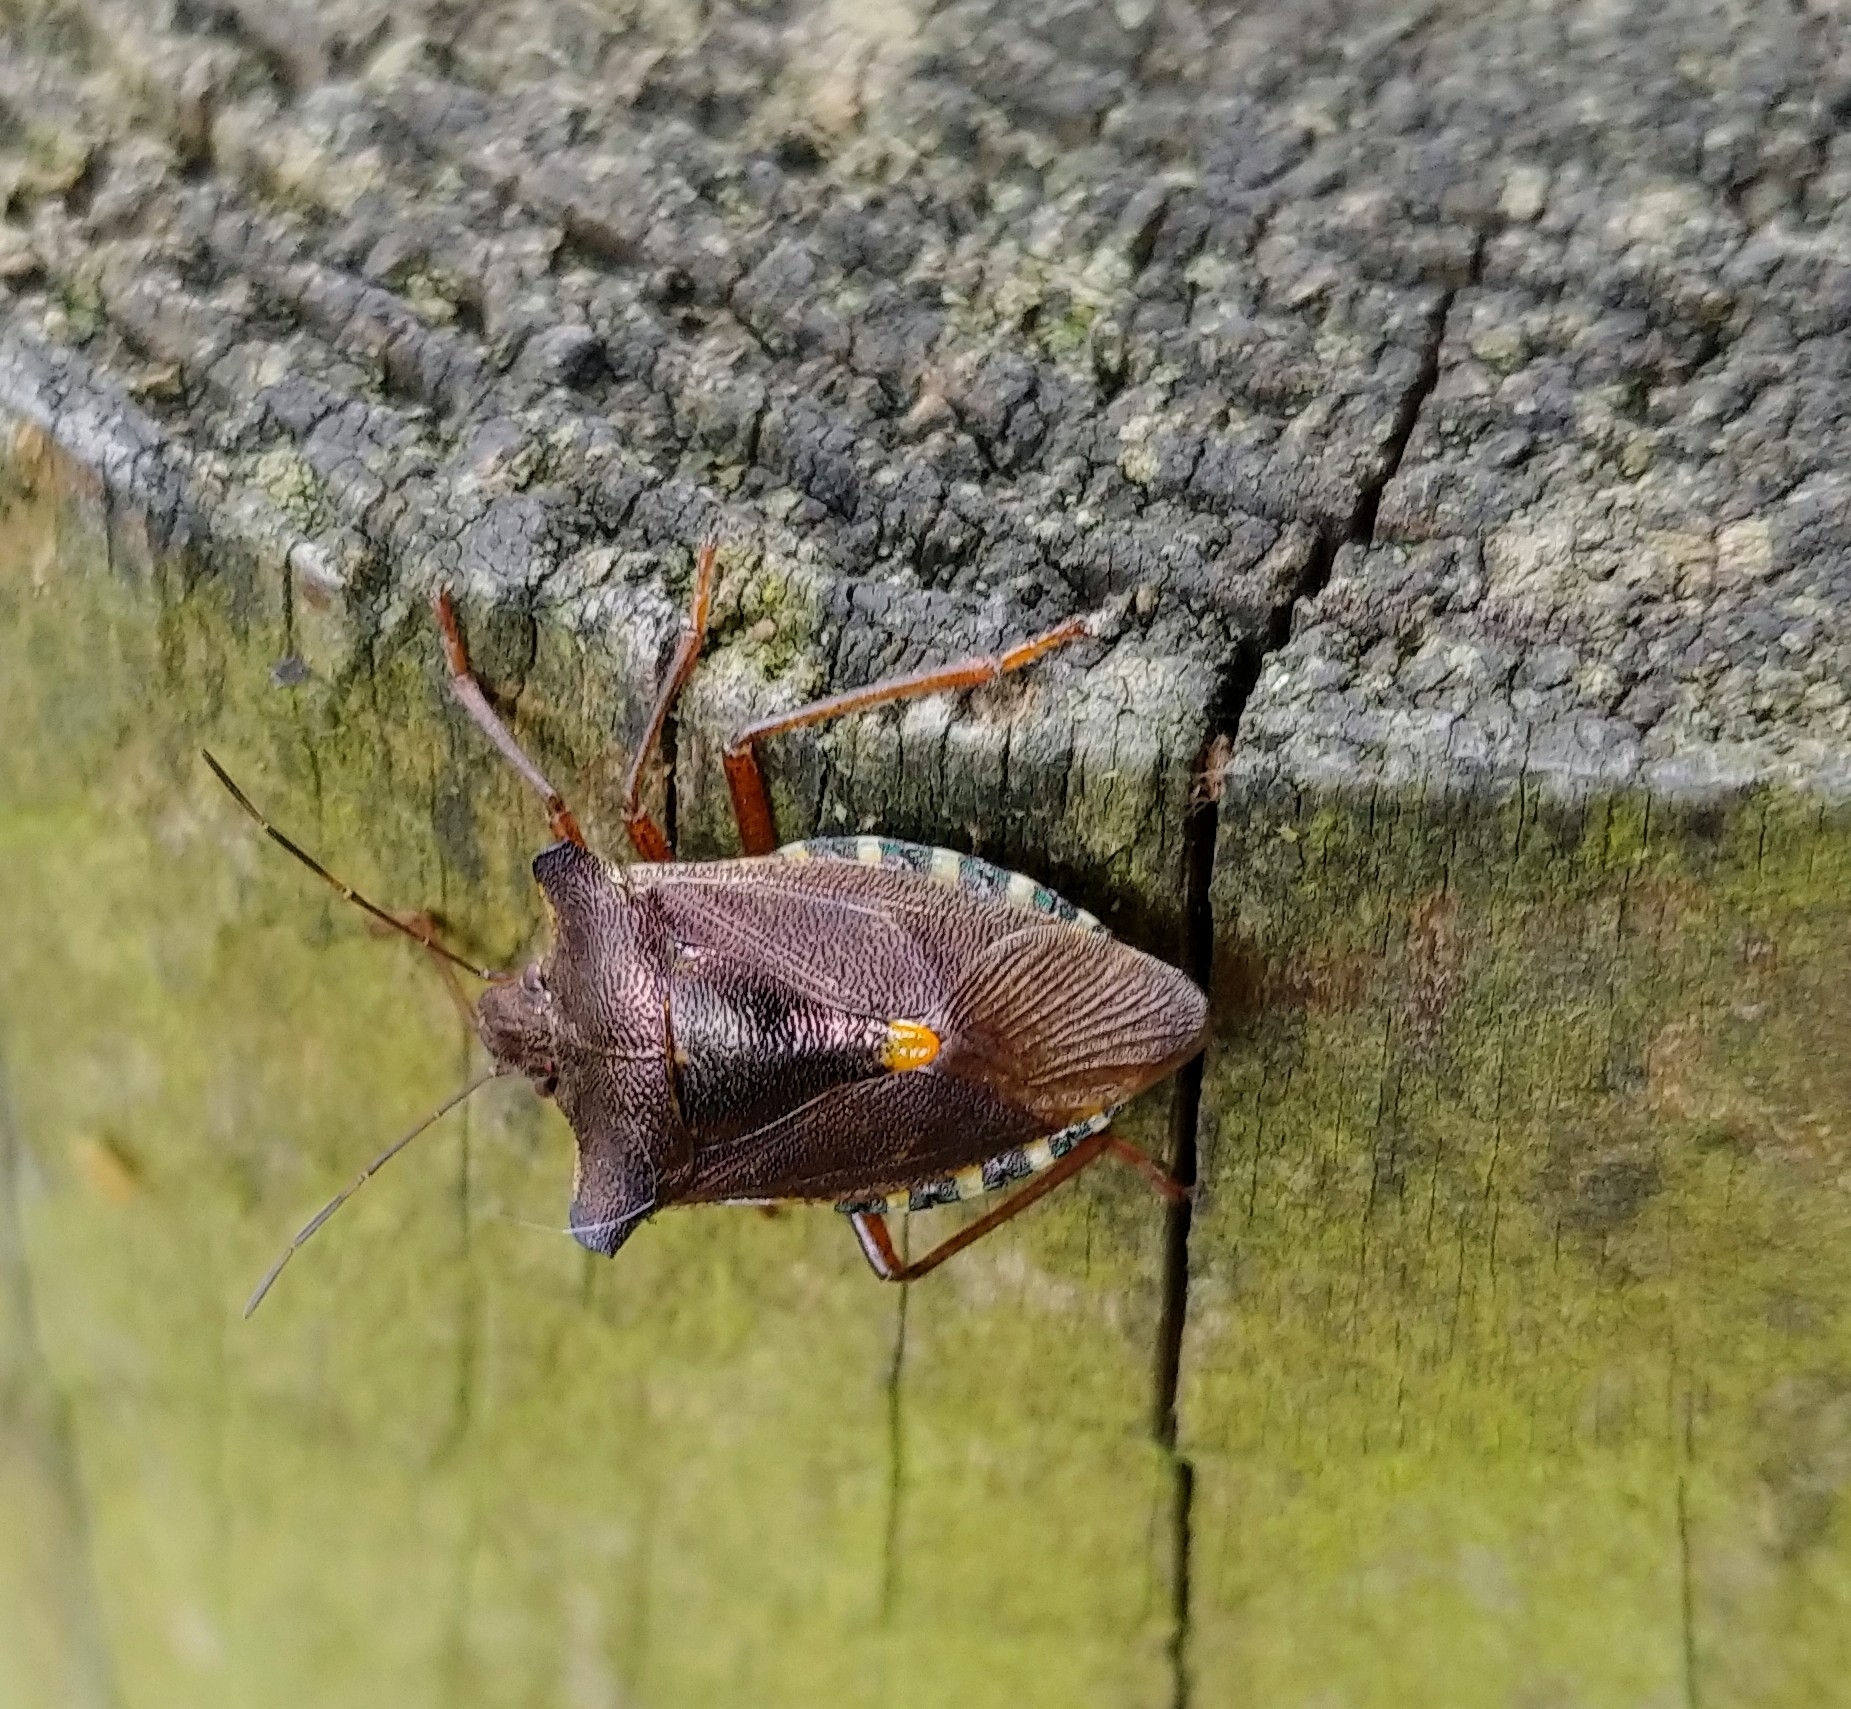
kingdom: Animalia
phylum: Arthropoda
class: Insecta
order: Hemiptera
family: Pentatomidae
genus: Pentatoma
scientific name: Pentatoma rufipes
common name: Forest bug
